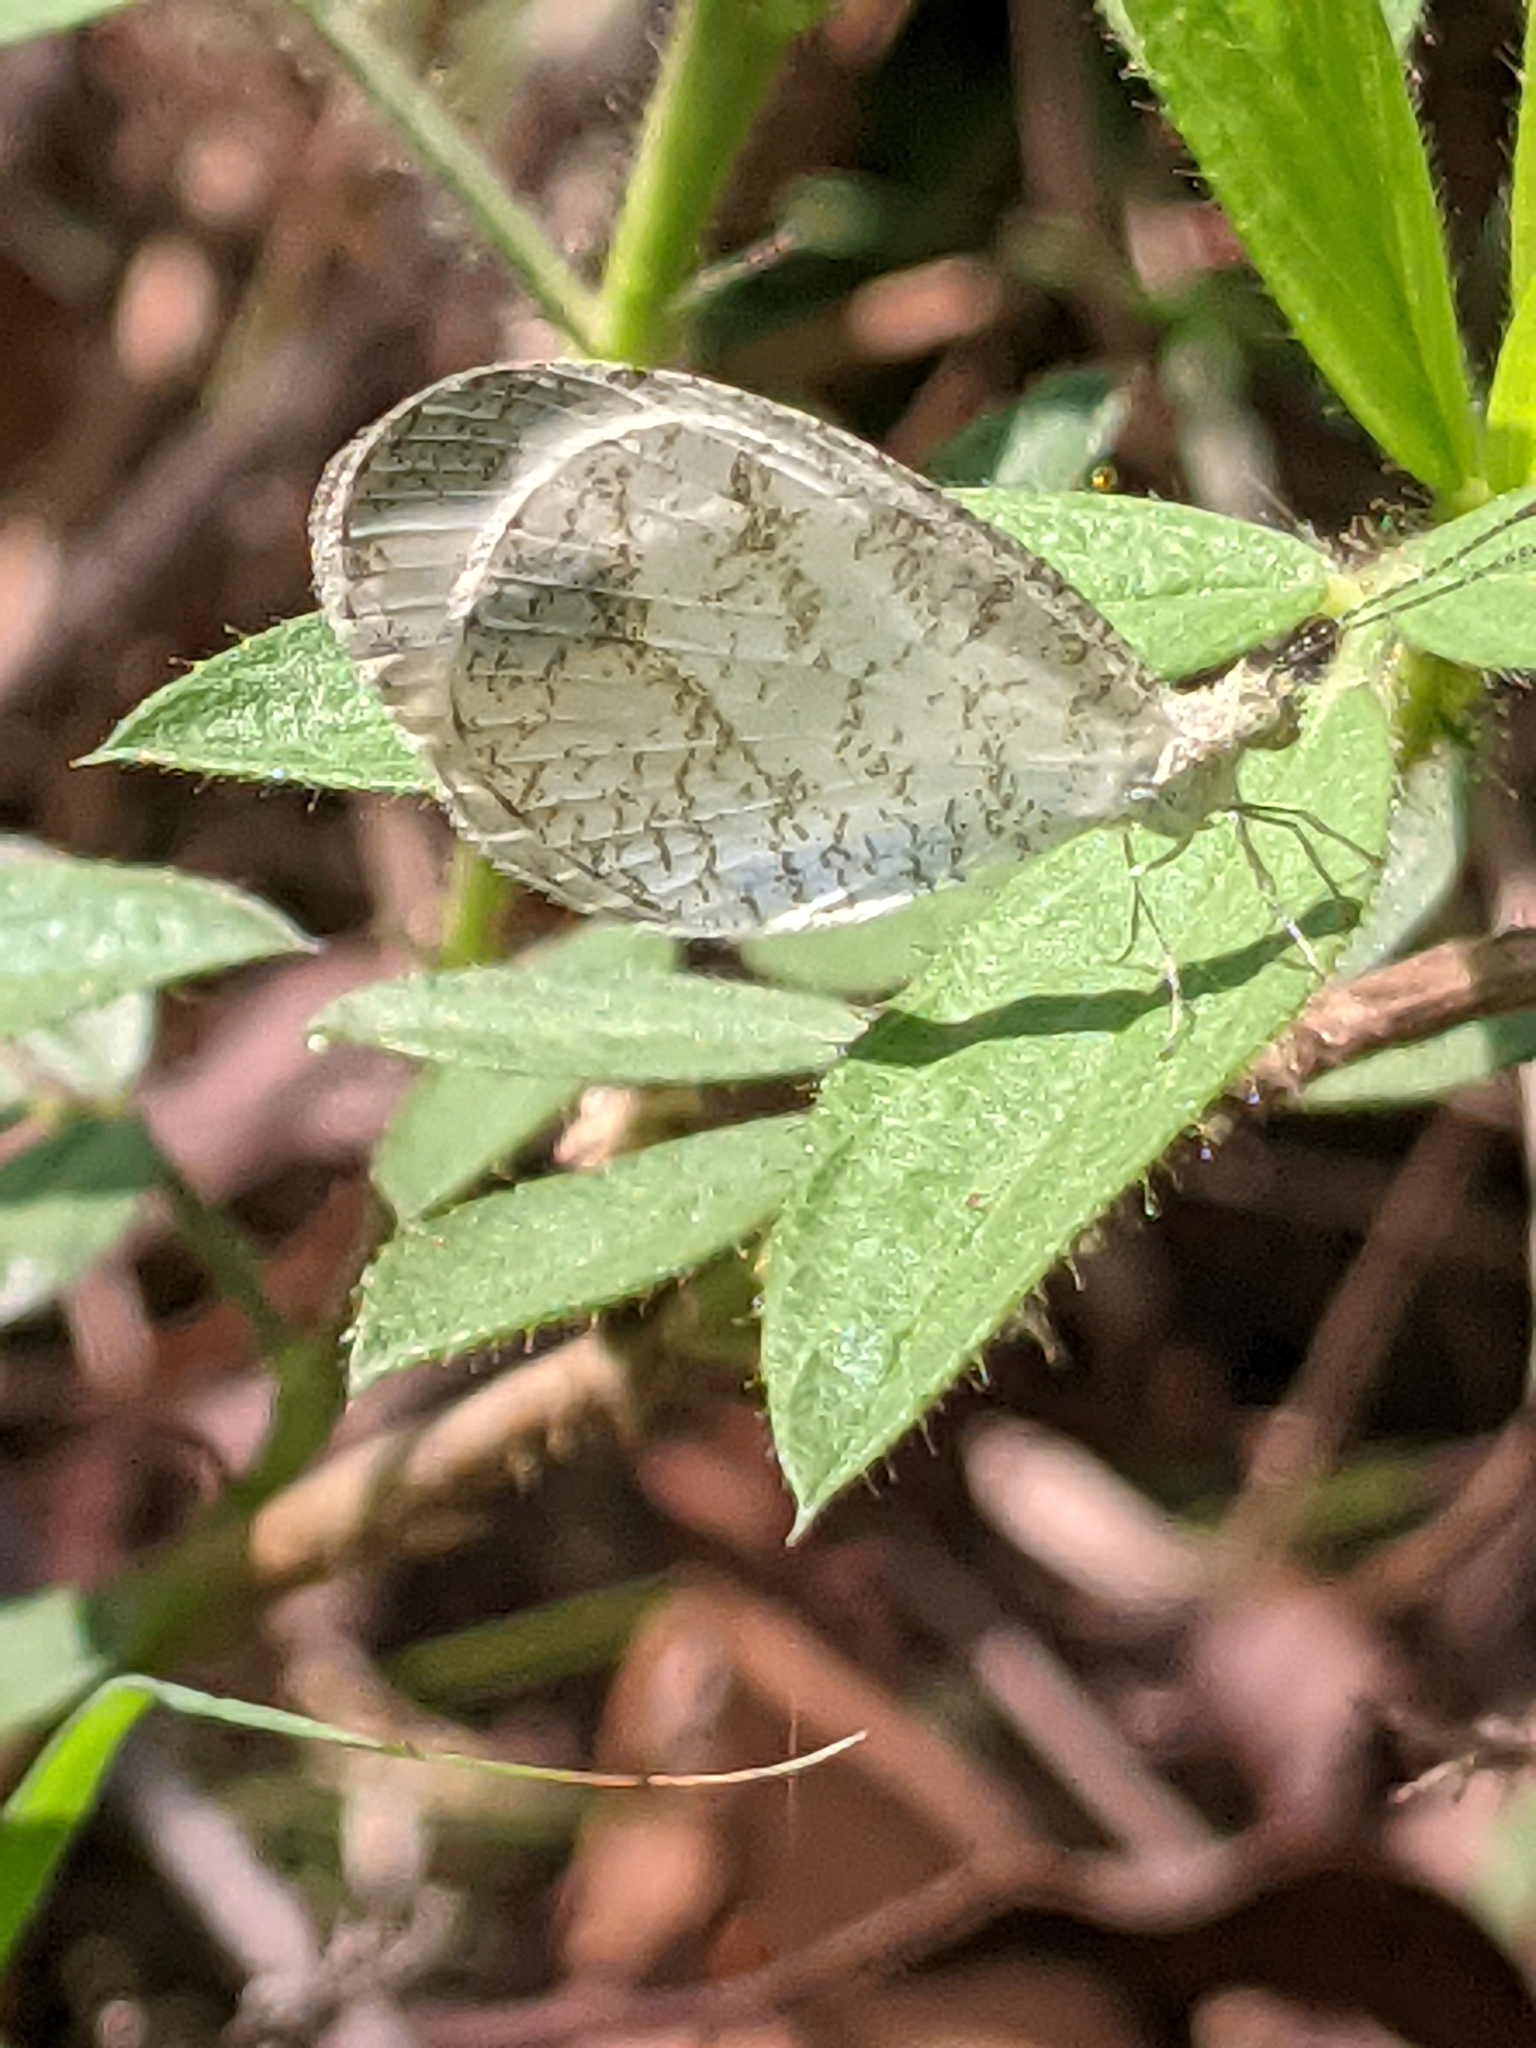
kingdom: Animalia
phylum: Arthropoda
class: Insecta
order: Lepidoptera
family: Pieridae
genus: Leptosia
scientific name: Leptosia nina
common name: Psyche
